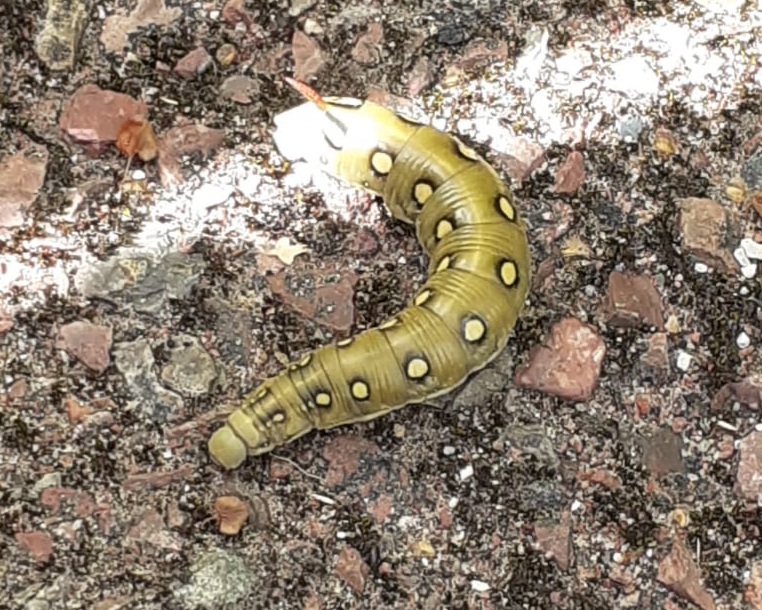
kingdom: Animalia
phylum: Arthropoda
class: Insecta
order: Lepidoptera
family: Sphingidae
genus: Hyles
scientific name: Hyles gallii
